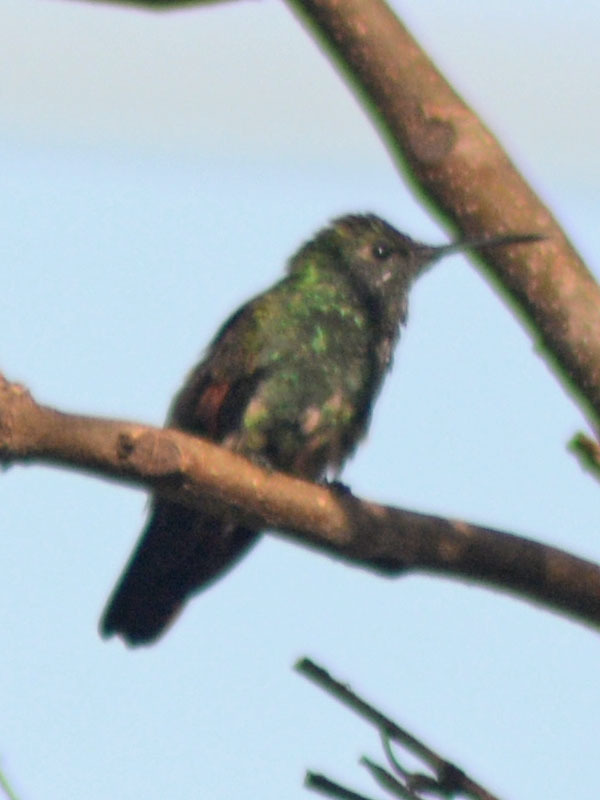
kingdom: Animalia
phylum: Chordata
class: Aves
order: Apodiformes
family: Trochilidae
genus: Saucerottia
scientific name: Saucerottia beryllina
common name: Berylline hummingbird
